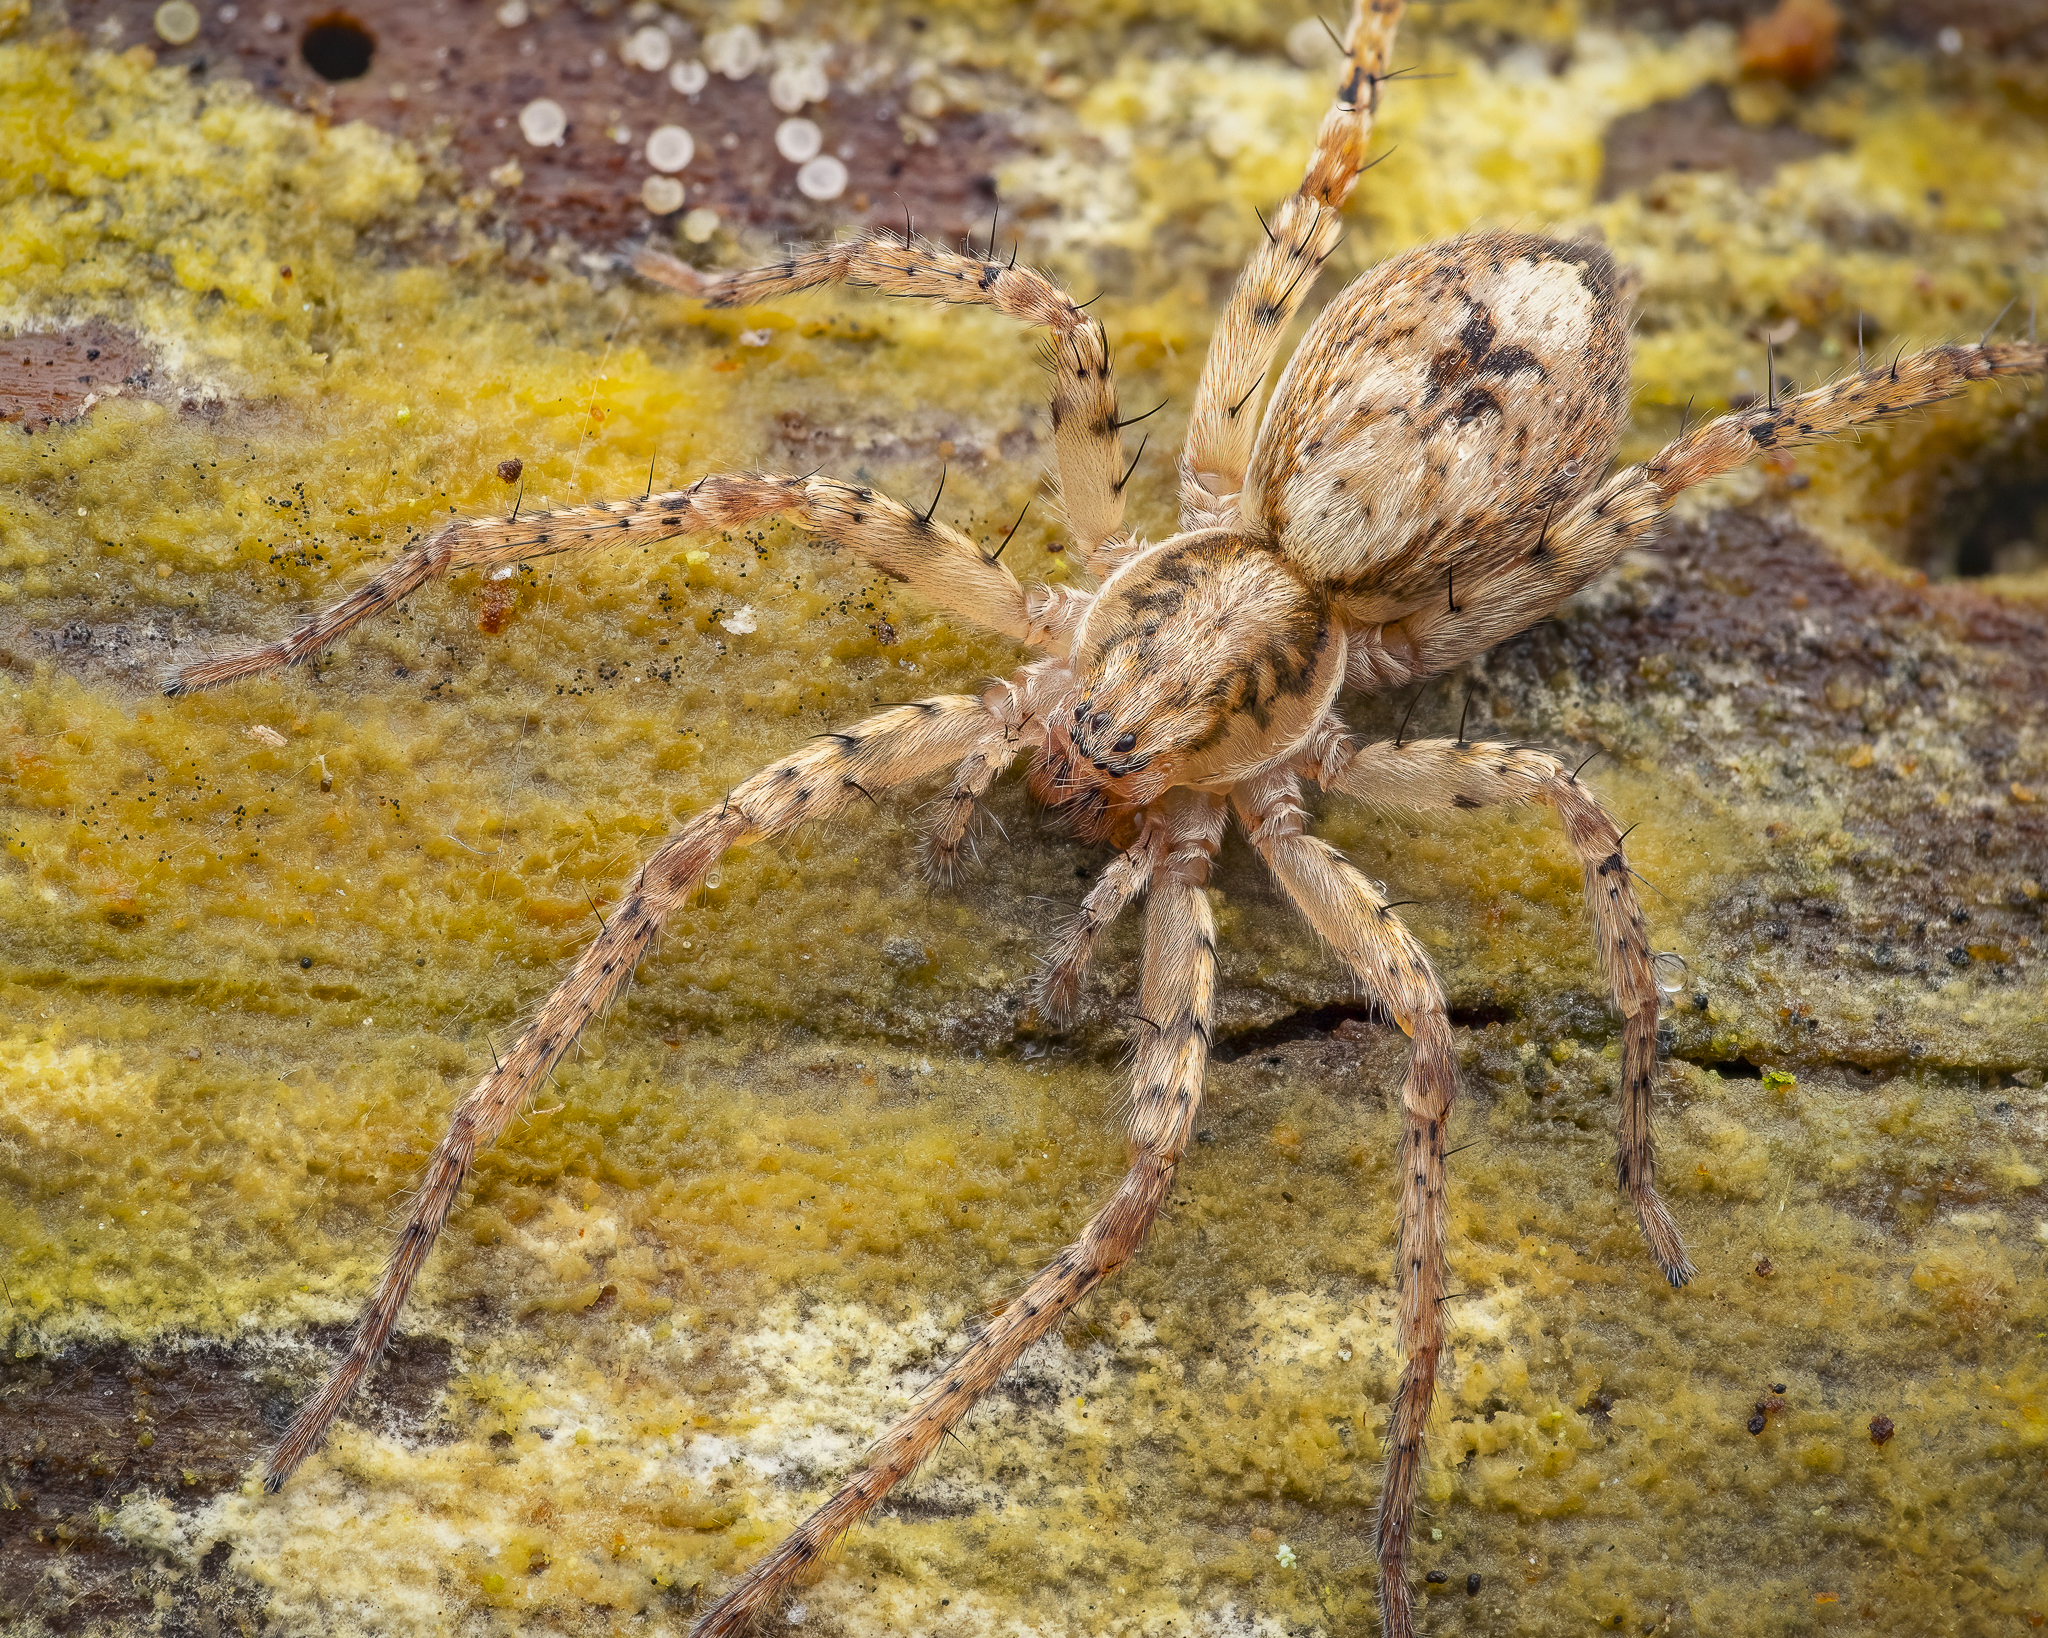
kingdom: Animalia
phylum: Arthropoda
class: Arachnida
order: Araneae
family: Anyphaenidae
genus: Anyphaena
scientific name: Anyphaena accentuata
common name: Buzzing spider
